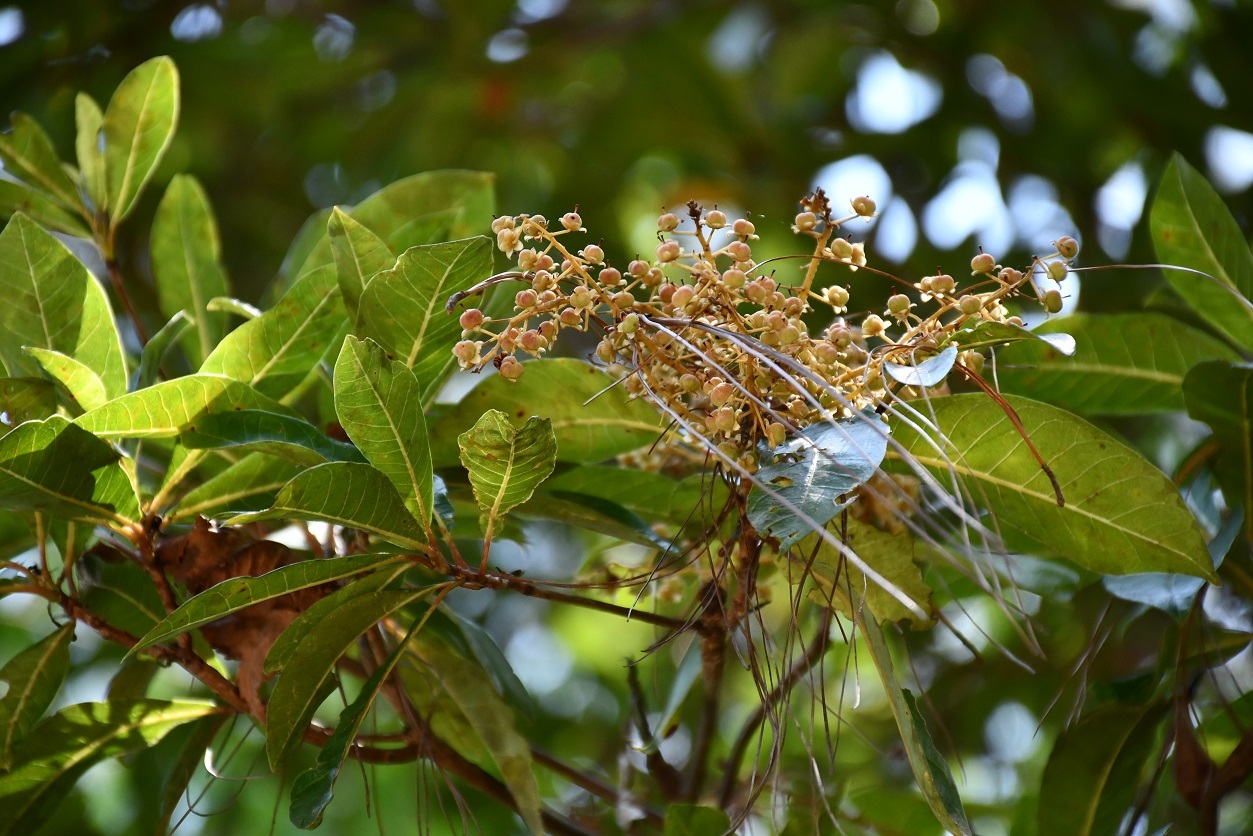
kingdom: Plantae
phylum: Tracheophyta
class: Magnoliopsida
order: Ericales
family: Clethraceae
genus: Clethra
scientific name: Clethra suaveolens
